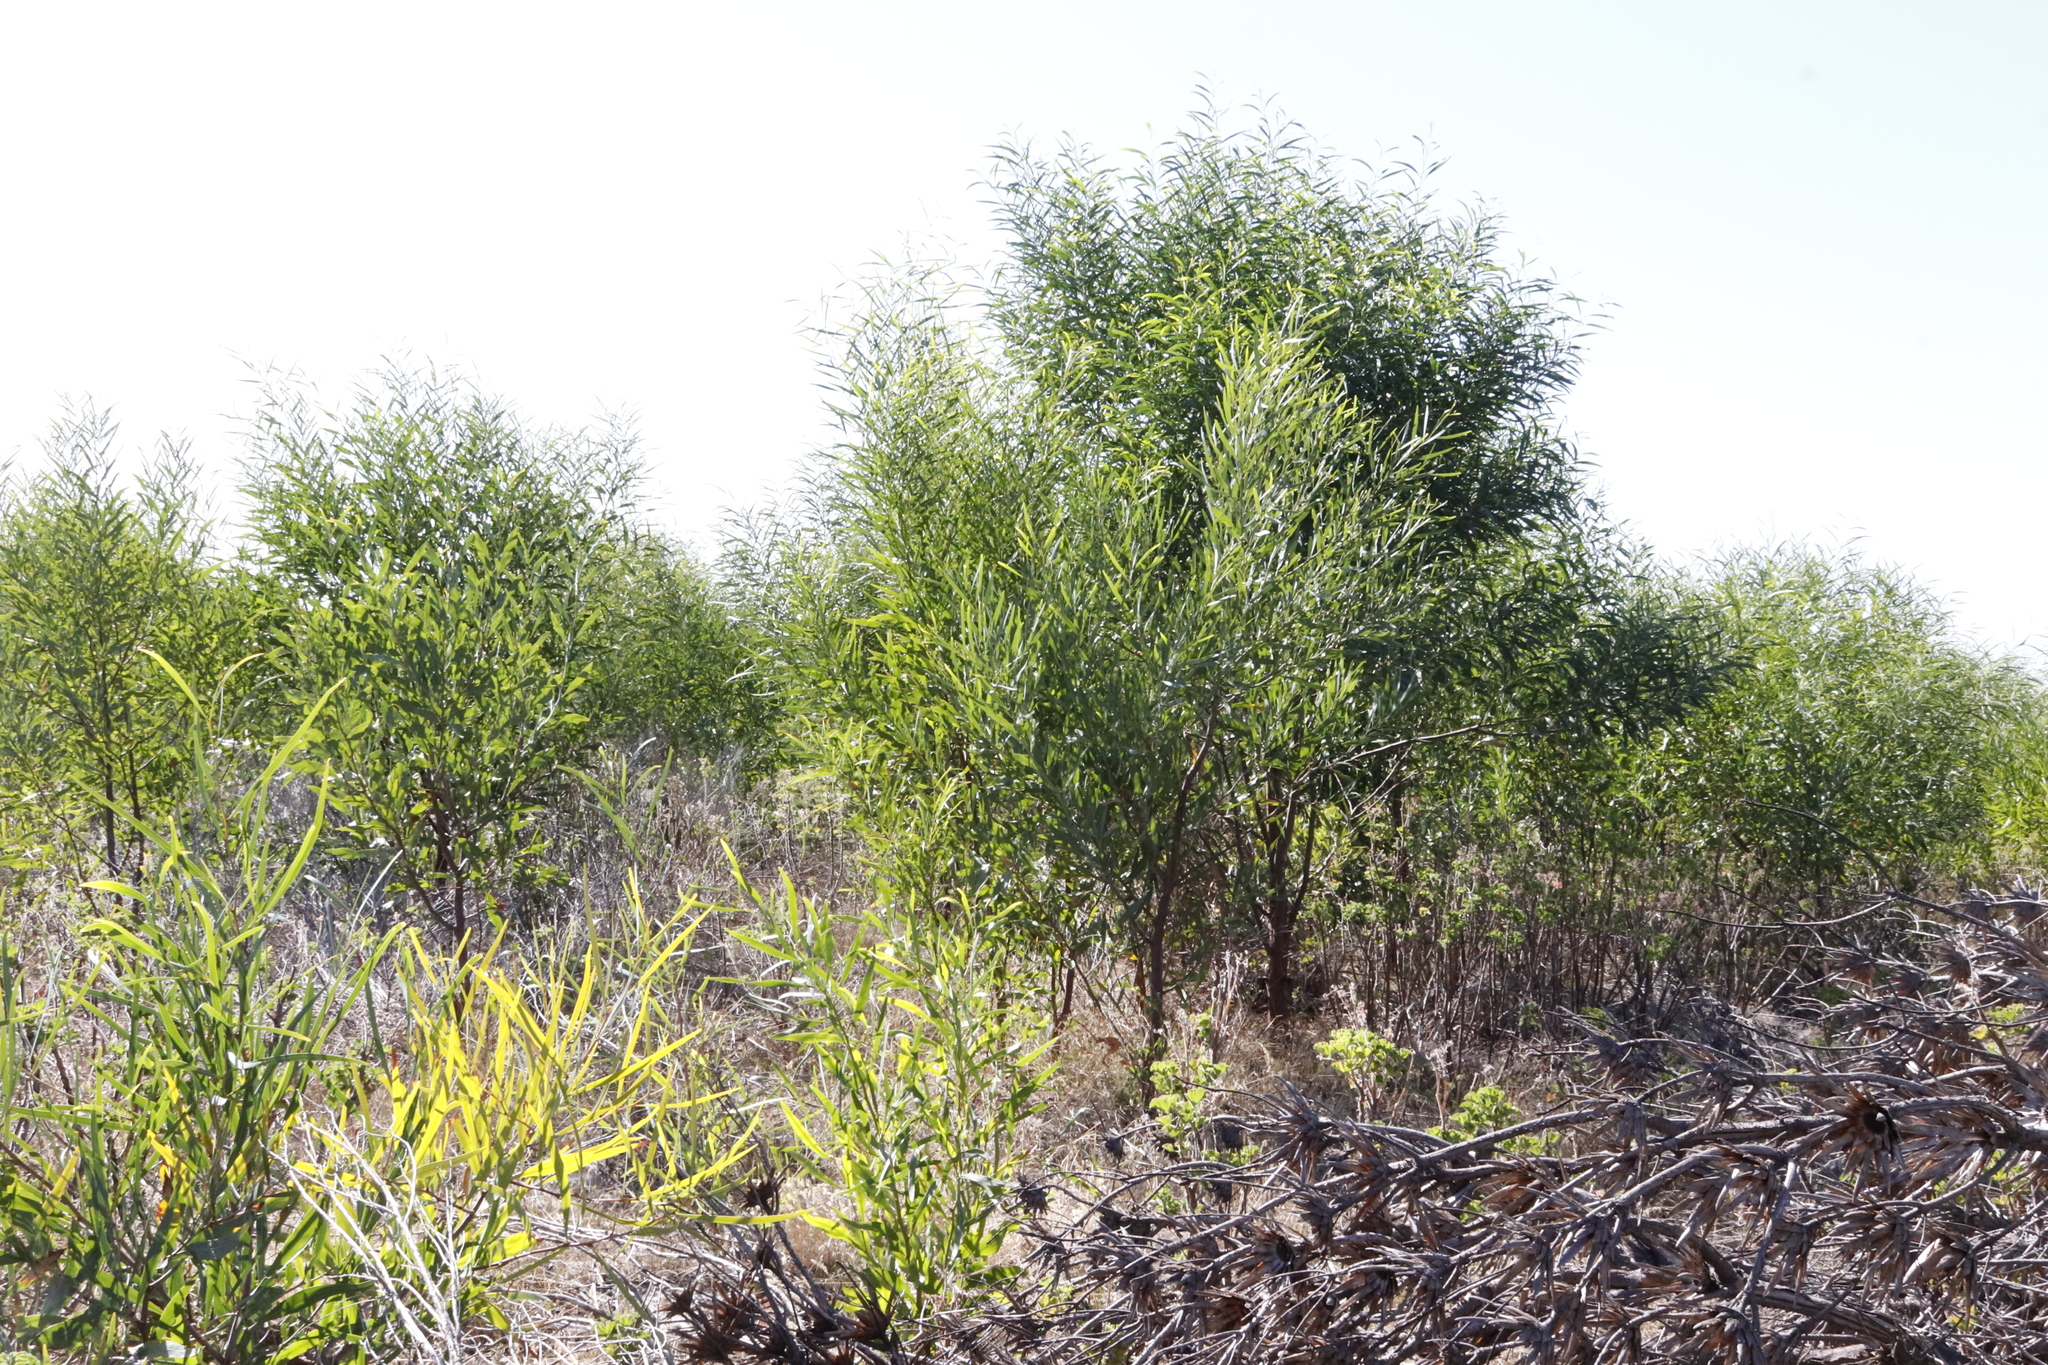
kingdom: Plantae
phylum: Tracheophyta
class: Magnoliopsida
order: Fabales
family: Fabaceae
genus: Acacia
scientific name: Acacia saligna
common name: Orange wattle
